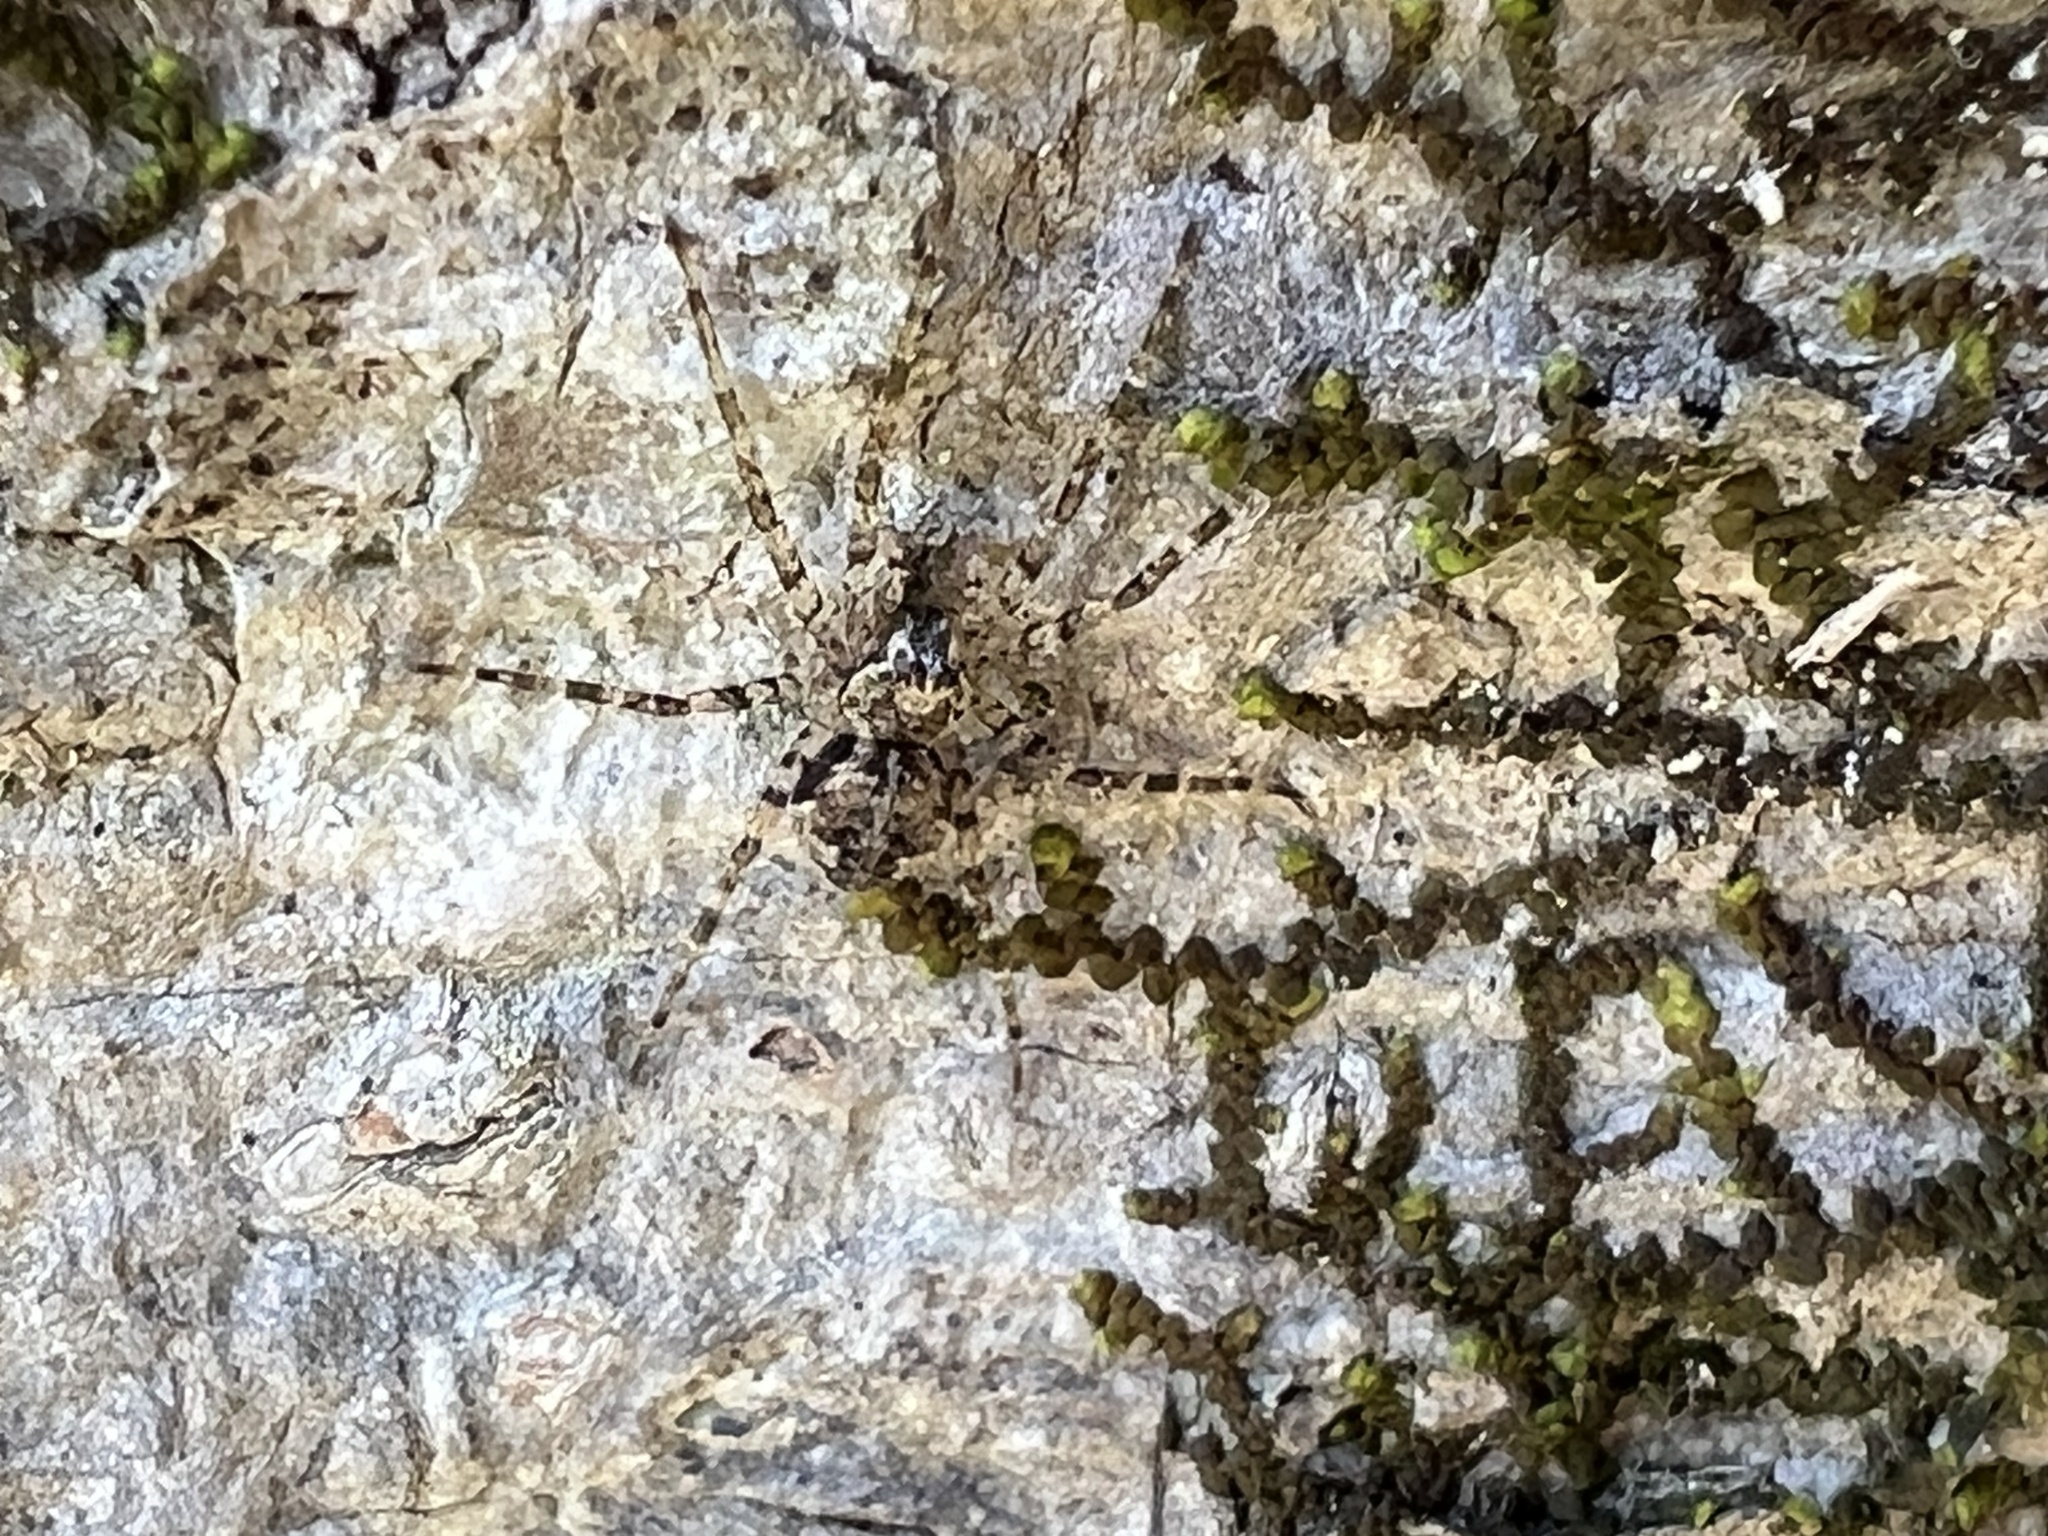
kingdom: Animalia
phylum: Arthropoda
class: Arachnida
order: Araneae
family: Pisauridae
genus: Dolomedes
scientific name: Dolomedes albineus
